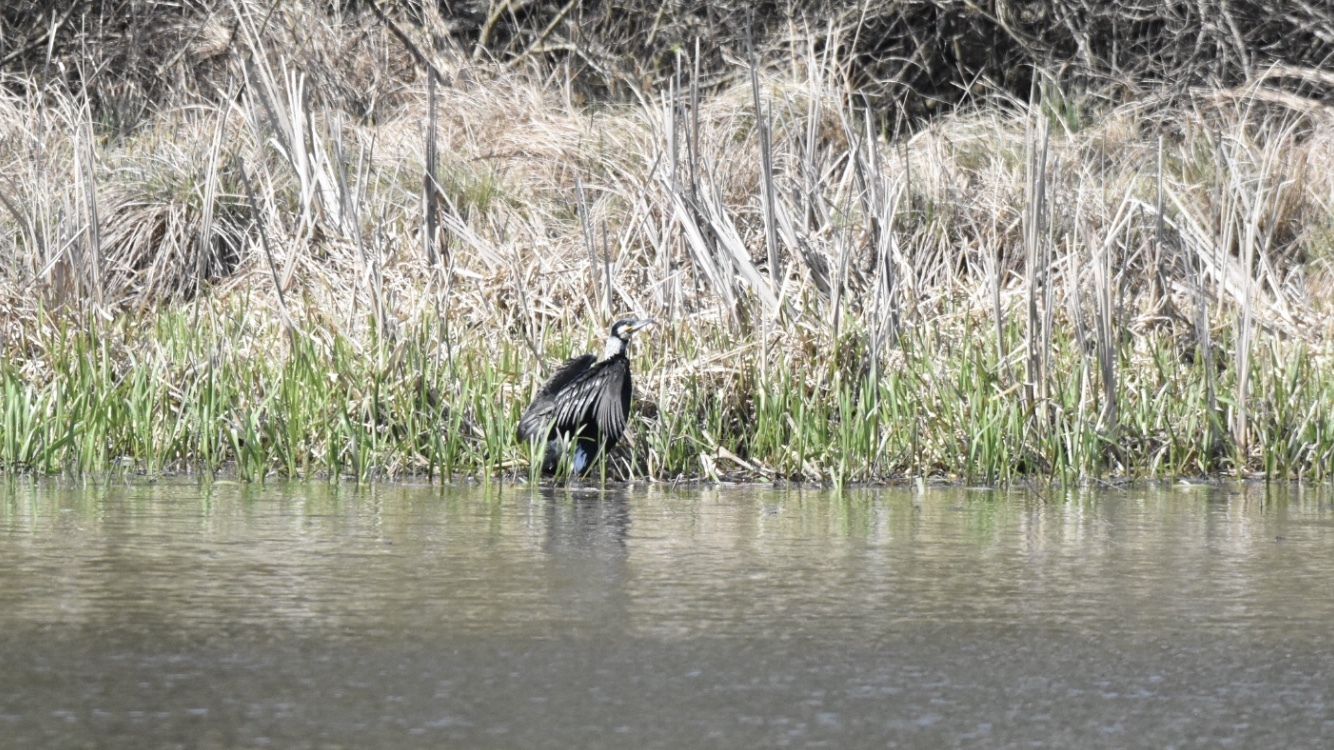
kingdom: Animalia
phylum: Chordata
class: Aves
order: Suliformes
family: Phalacrocoracidae
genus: Phalacrocorax
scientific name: Phalacrocorax carbo
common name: Great cormorant
